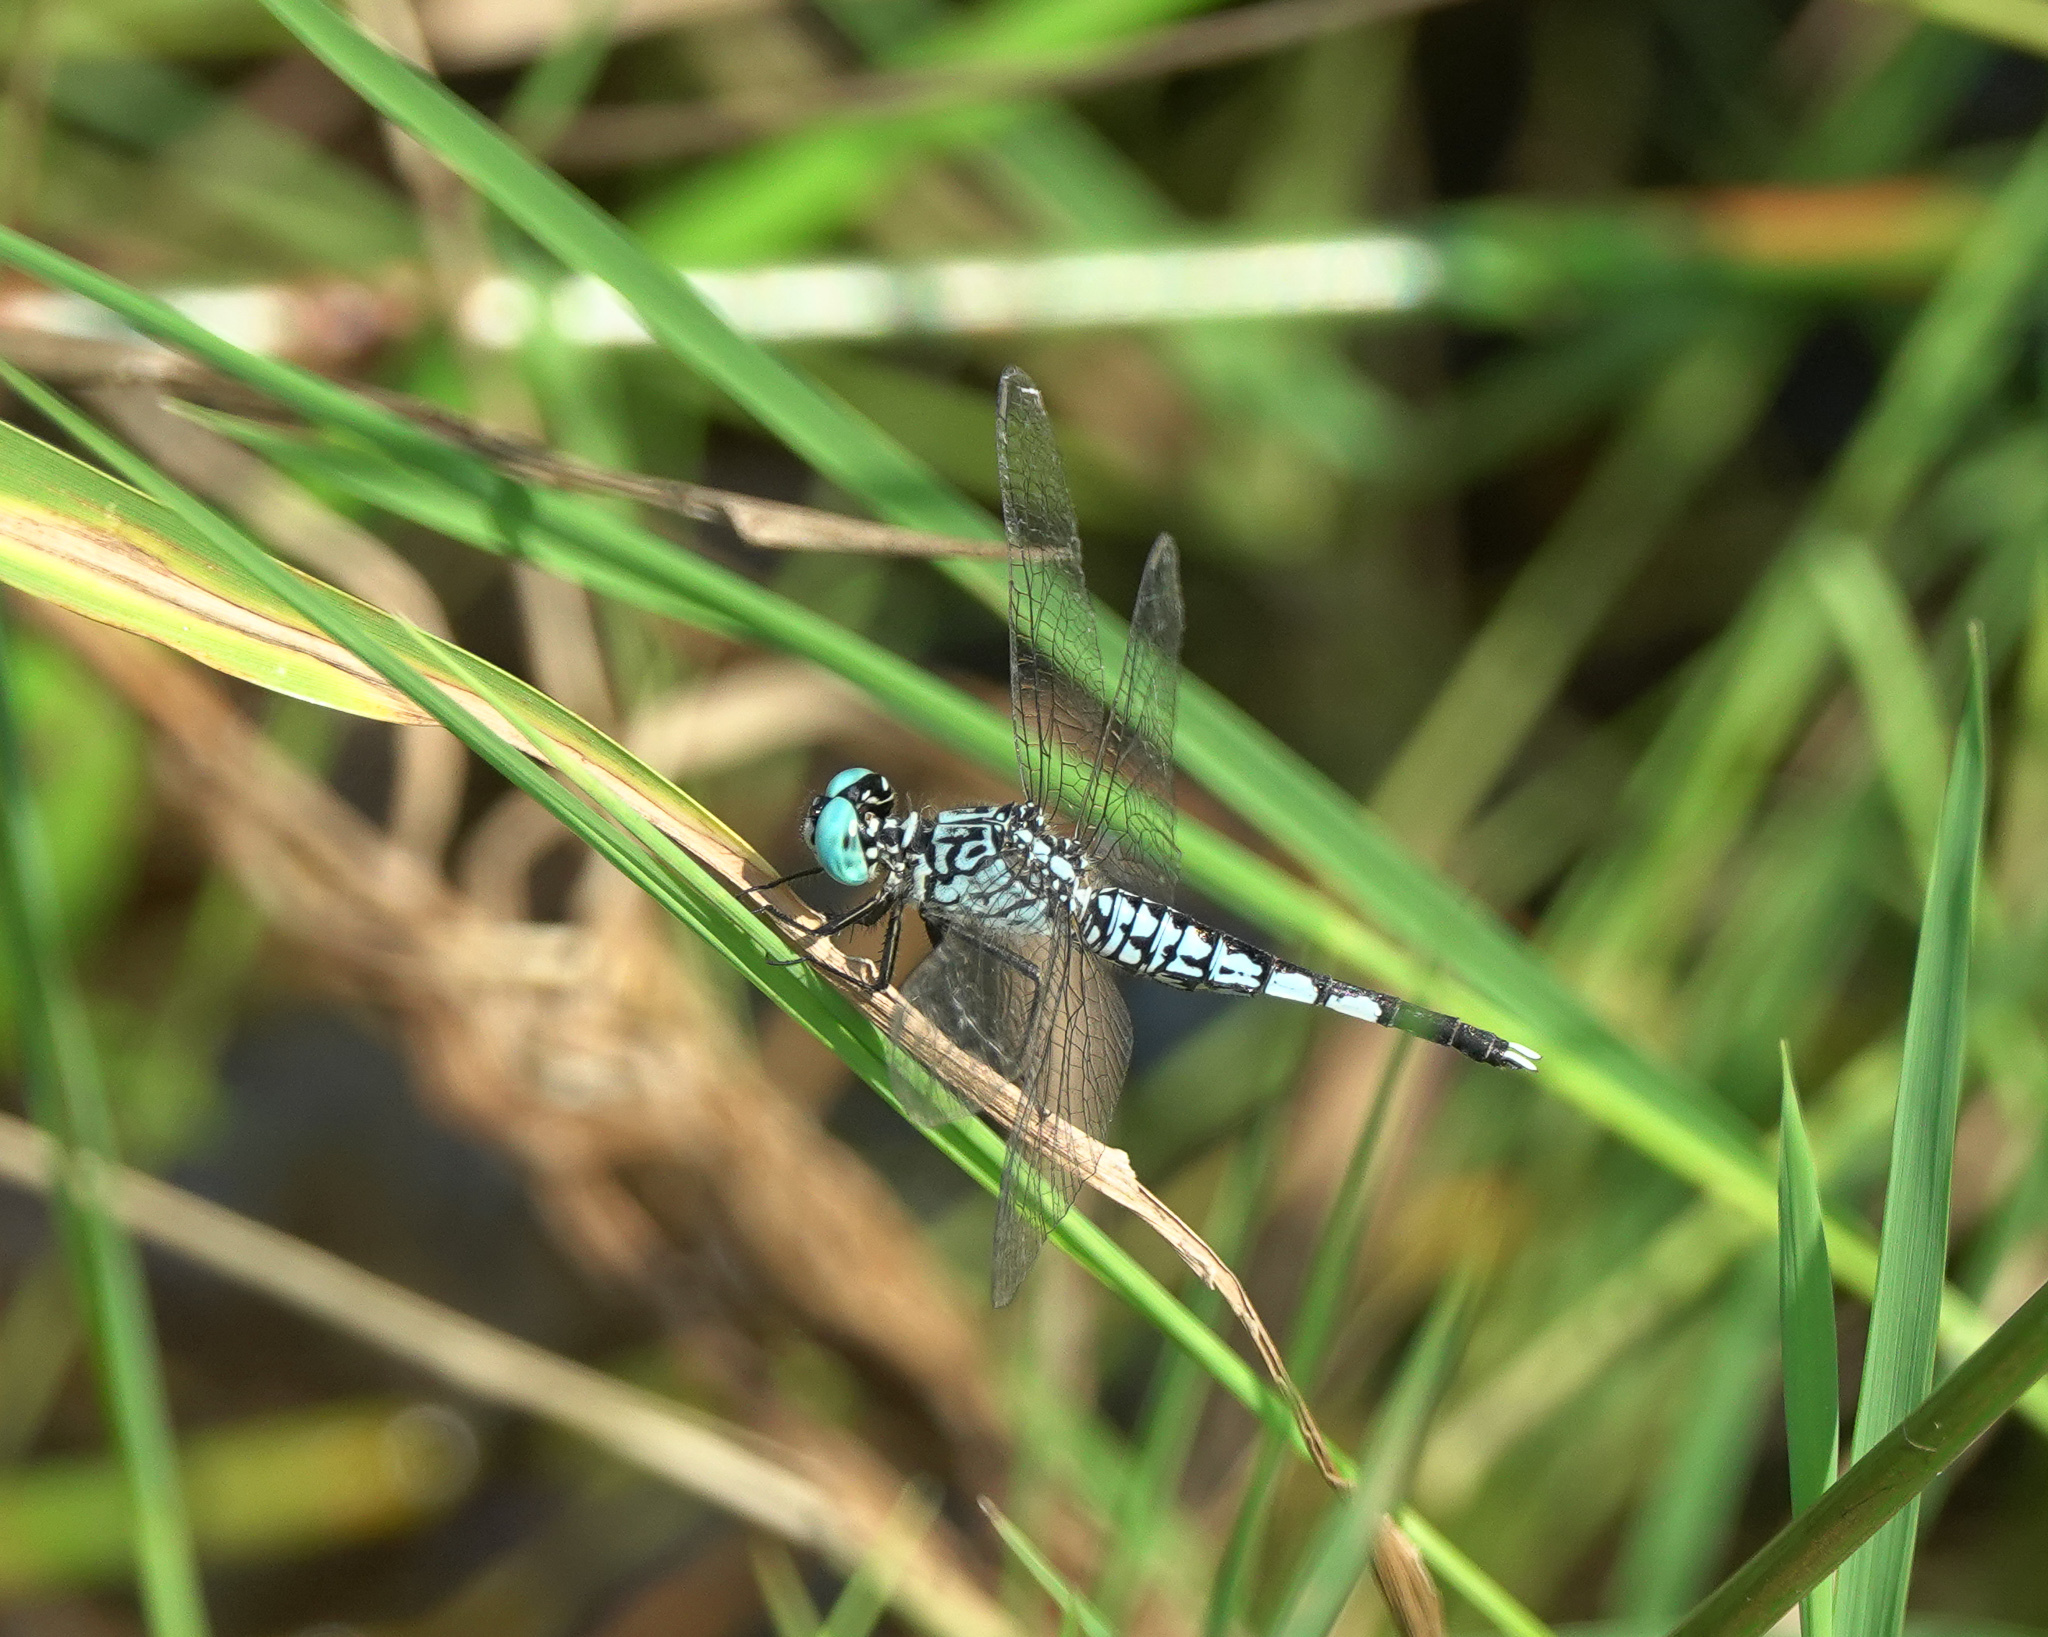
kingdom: Animalia
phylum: Arthropoda
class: Insecta
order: Odonata
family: Libellulidae
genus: Acisoma
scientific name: Acisoma panorpoides
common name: Asian pintail
